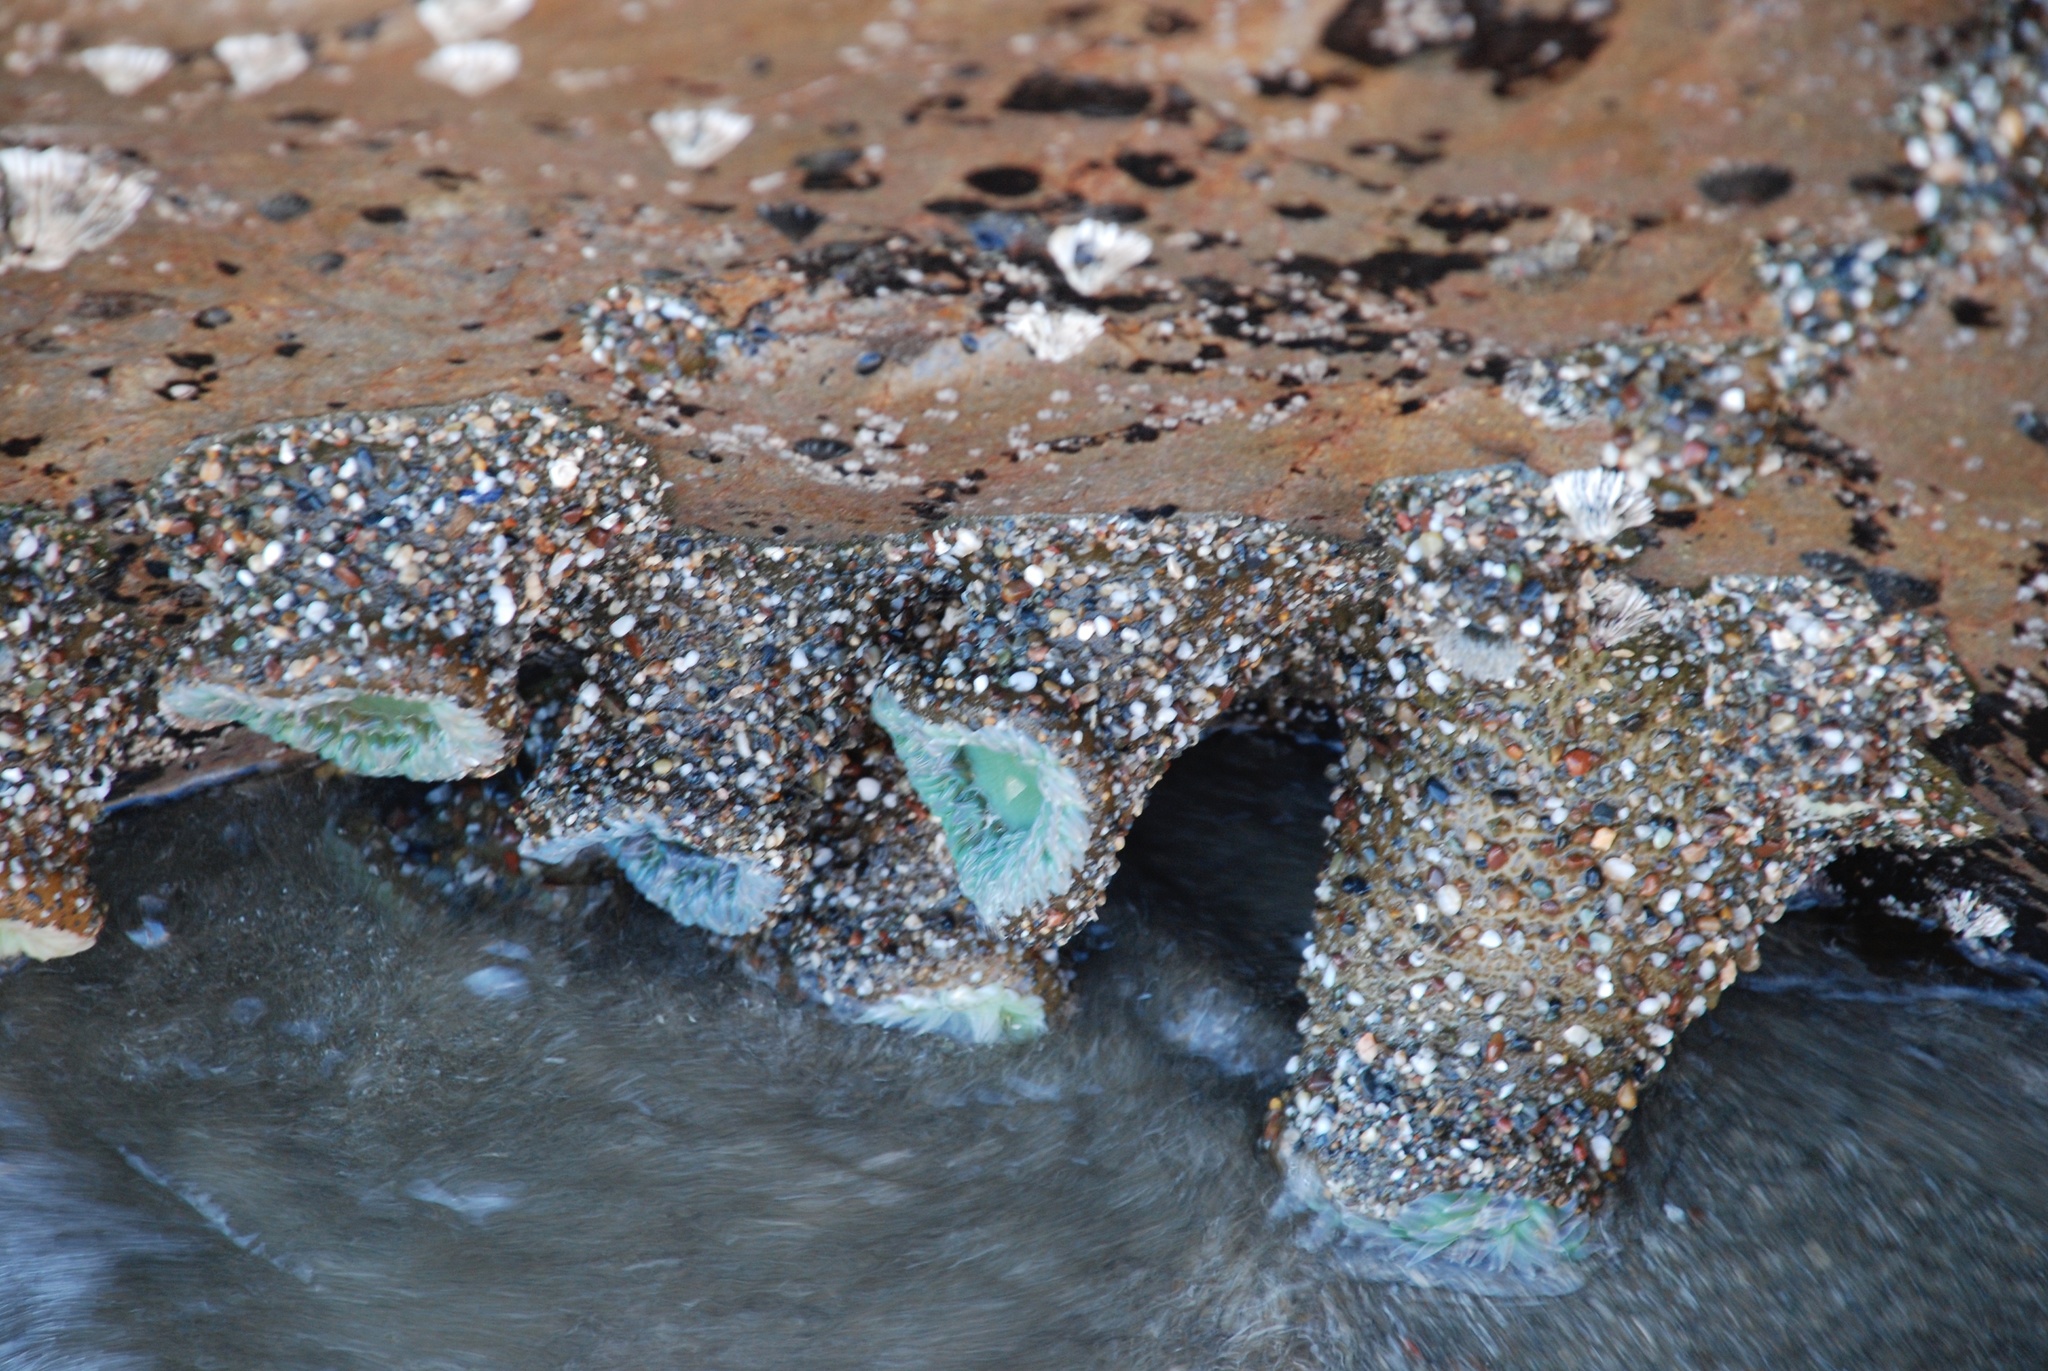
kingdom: Animalia
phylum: Cnidaria
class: Anthozoa
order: Actiniaria
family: Actiniidae
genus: Anthopleura
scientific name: Anthopleura xanthogrammica
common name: Giant green anemone
